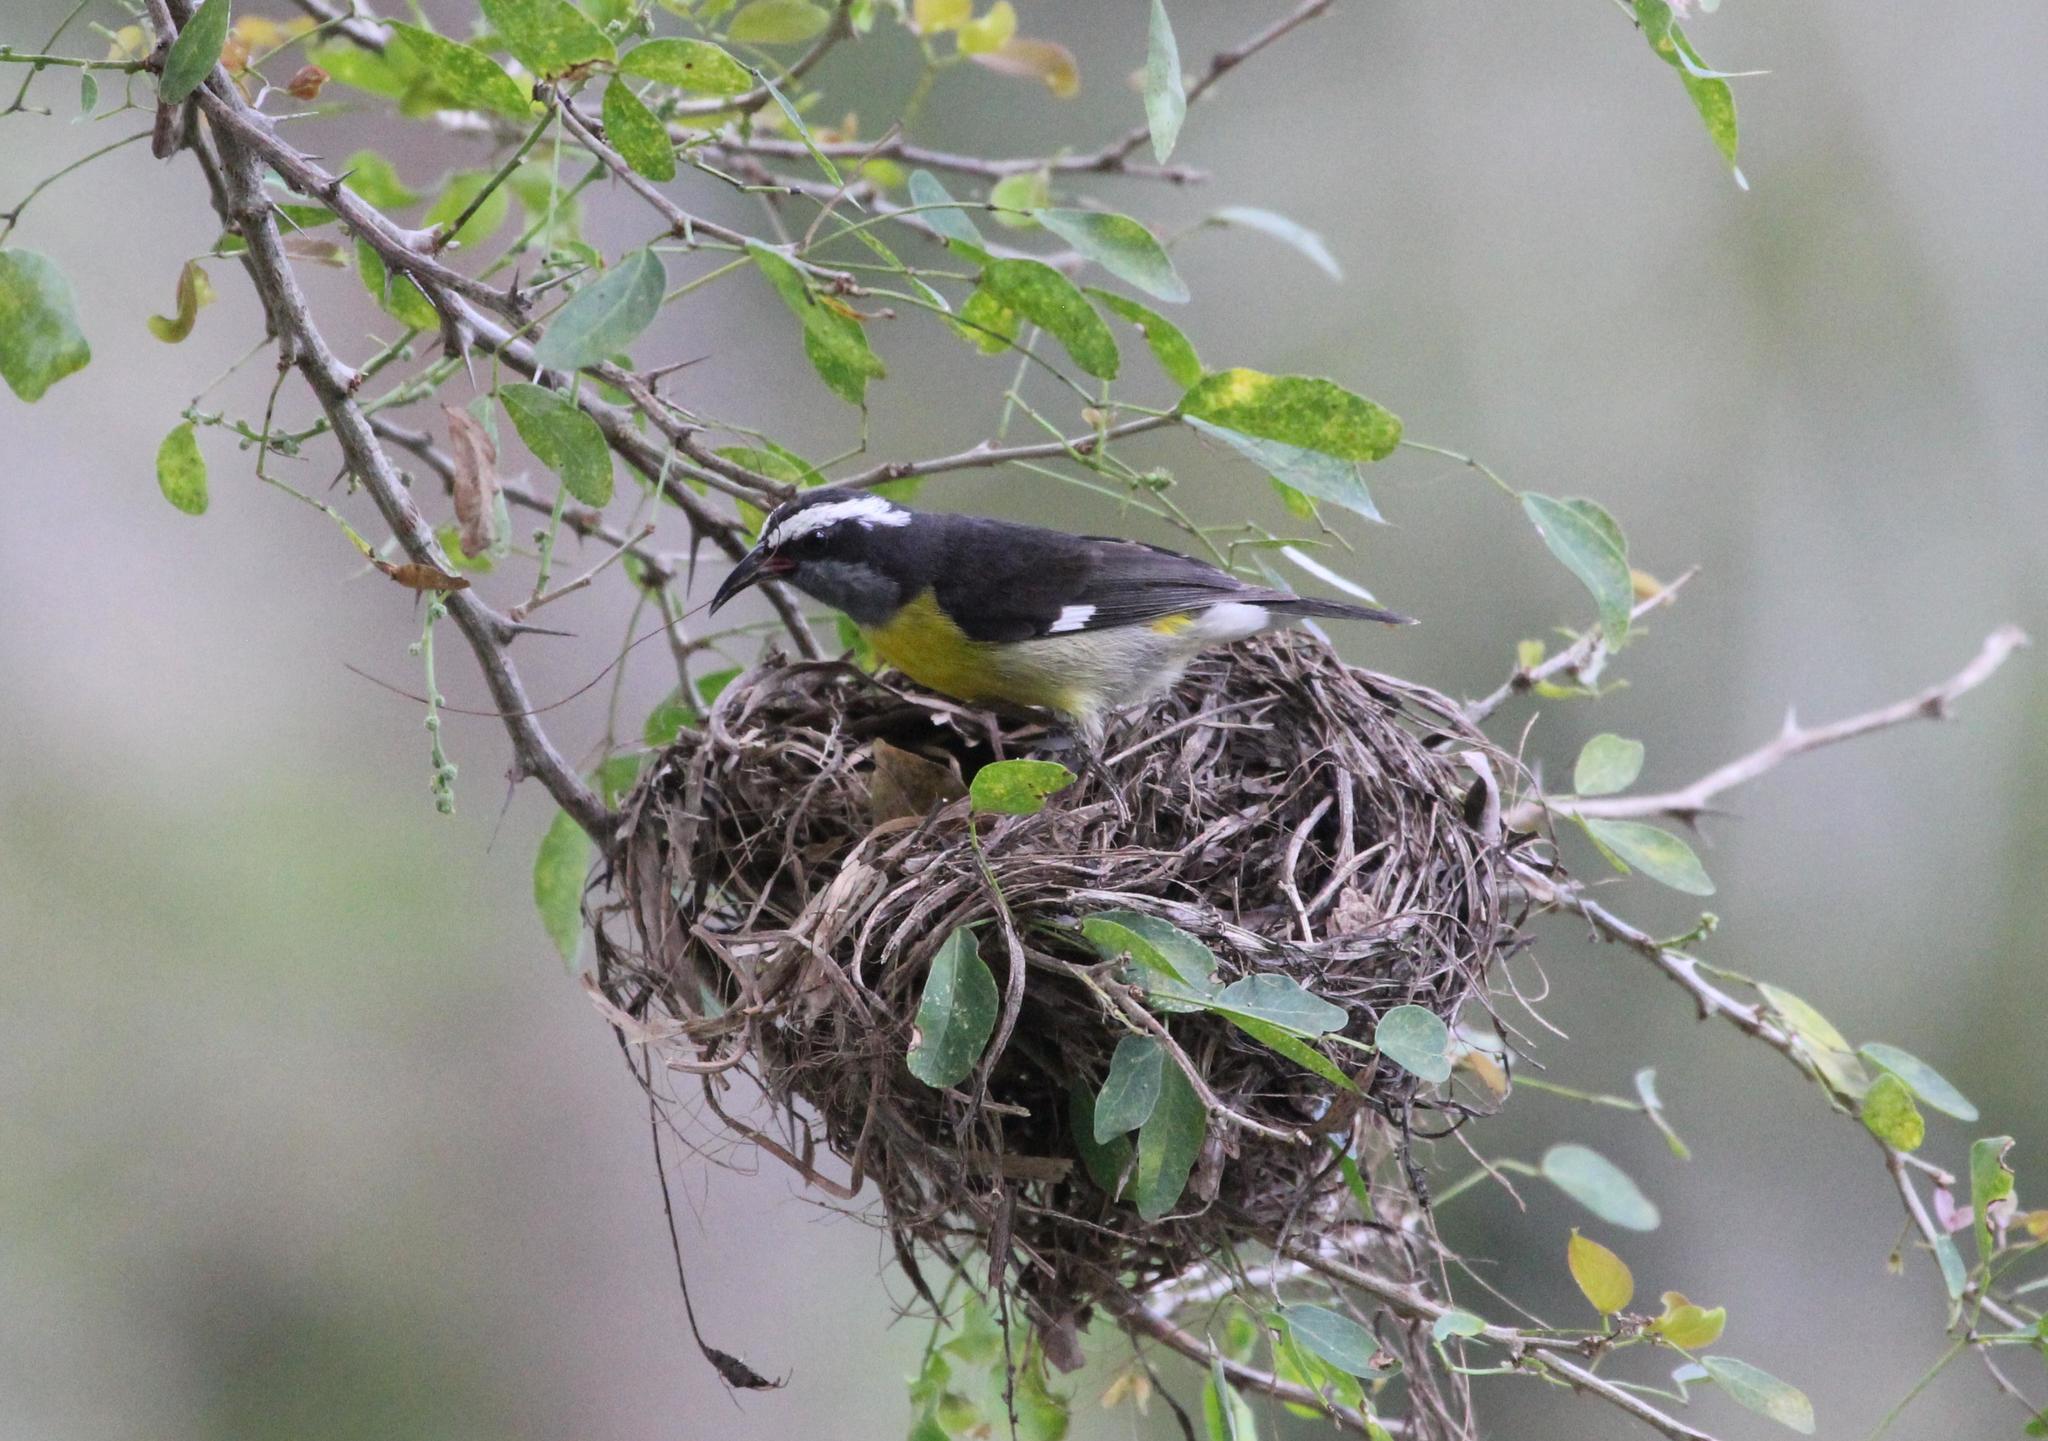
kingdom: Animalia
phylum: Chordata
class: Aves
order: Passeriformes
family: Thraupidae
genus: Coereba
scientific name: Coereba flaveola
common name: Bananaquit
